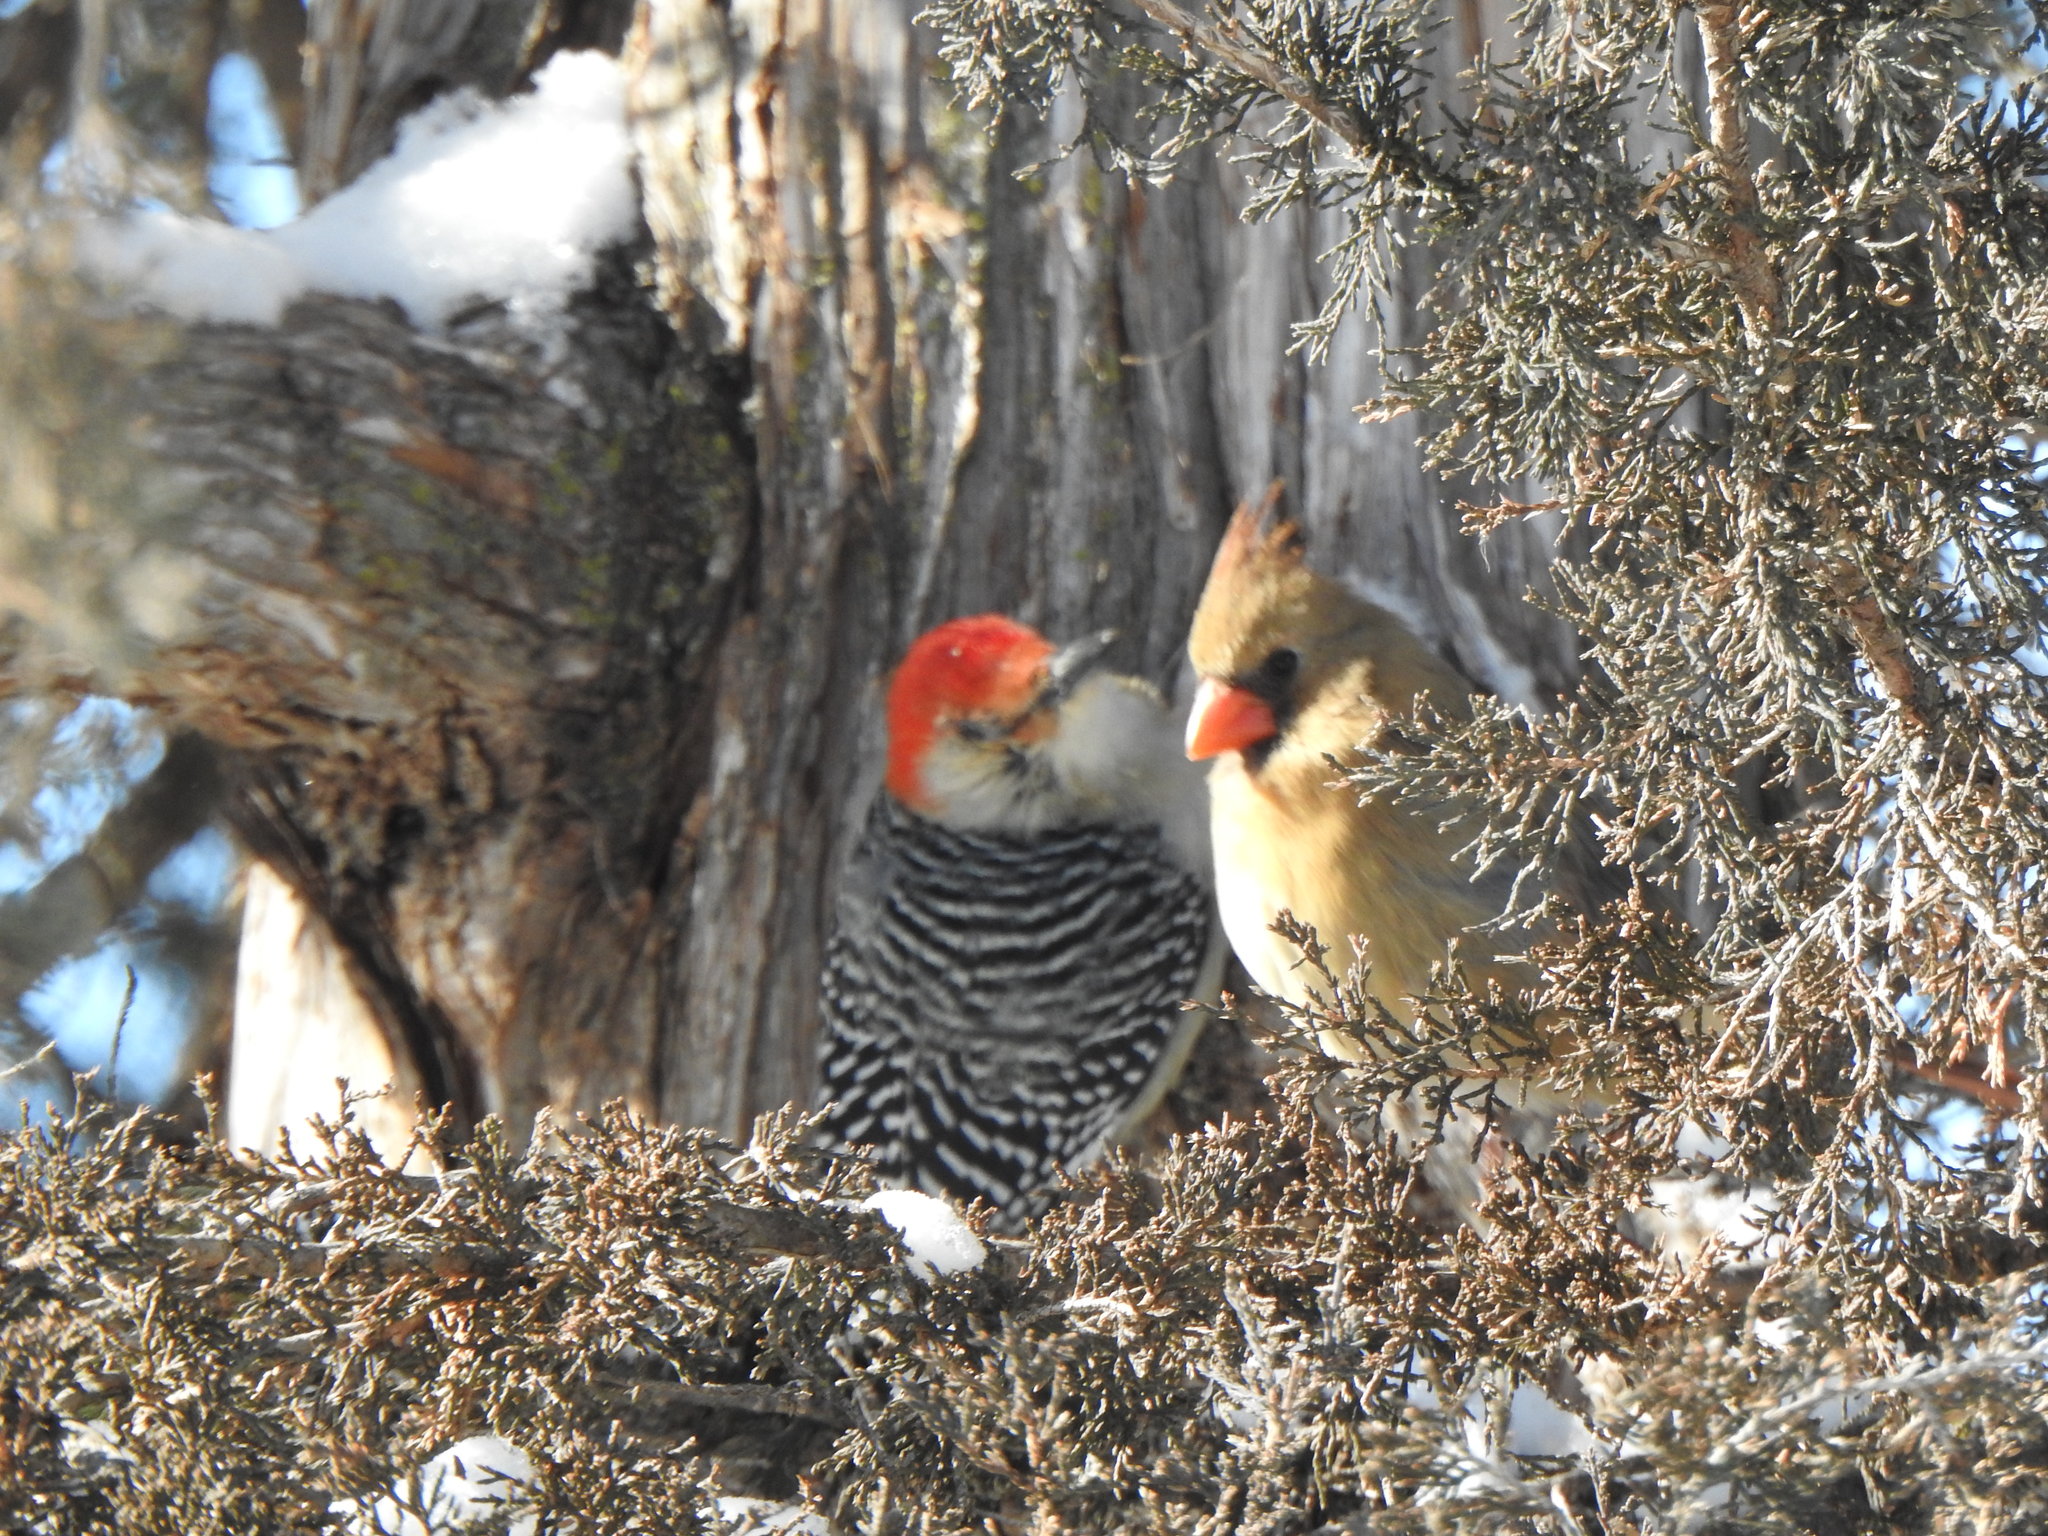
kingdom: Animalia
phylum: Chordata
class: Aves
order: Piciformes
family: Picidae
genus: Melanerpes
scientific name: Melanerpes carolinus
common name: Red-bellied woodpecker
